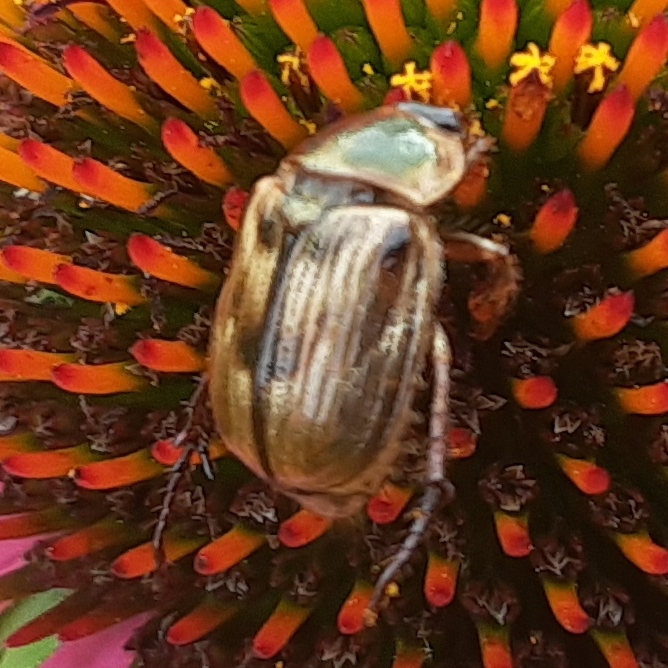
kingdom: Animalia
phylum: Arthropoda
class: Insecta
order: Coleoptera
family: Scarabaeidae
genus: Exomala
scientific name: Exomala orientalis
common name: Oriental beetle
